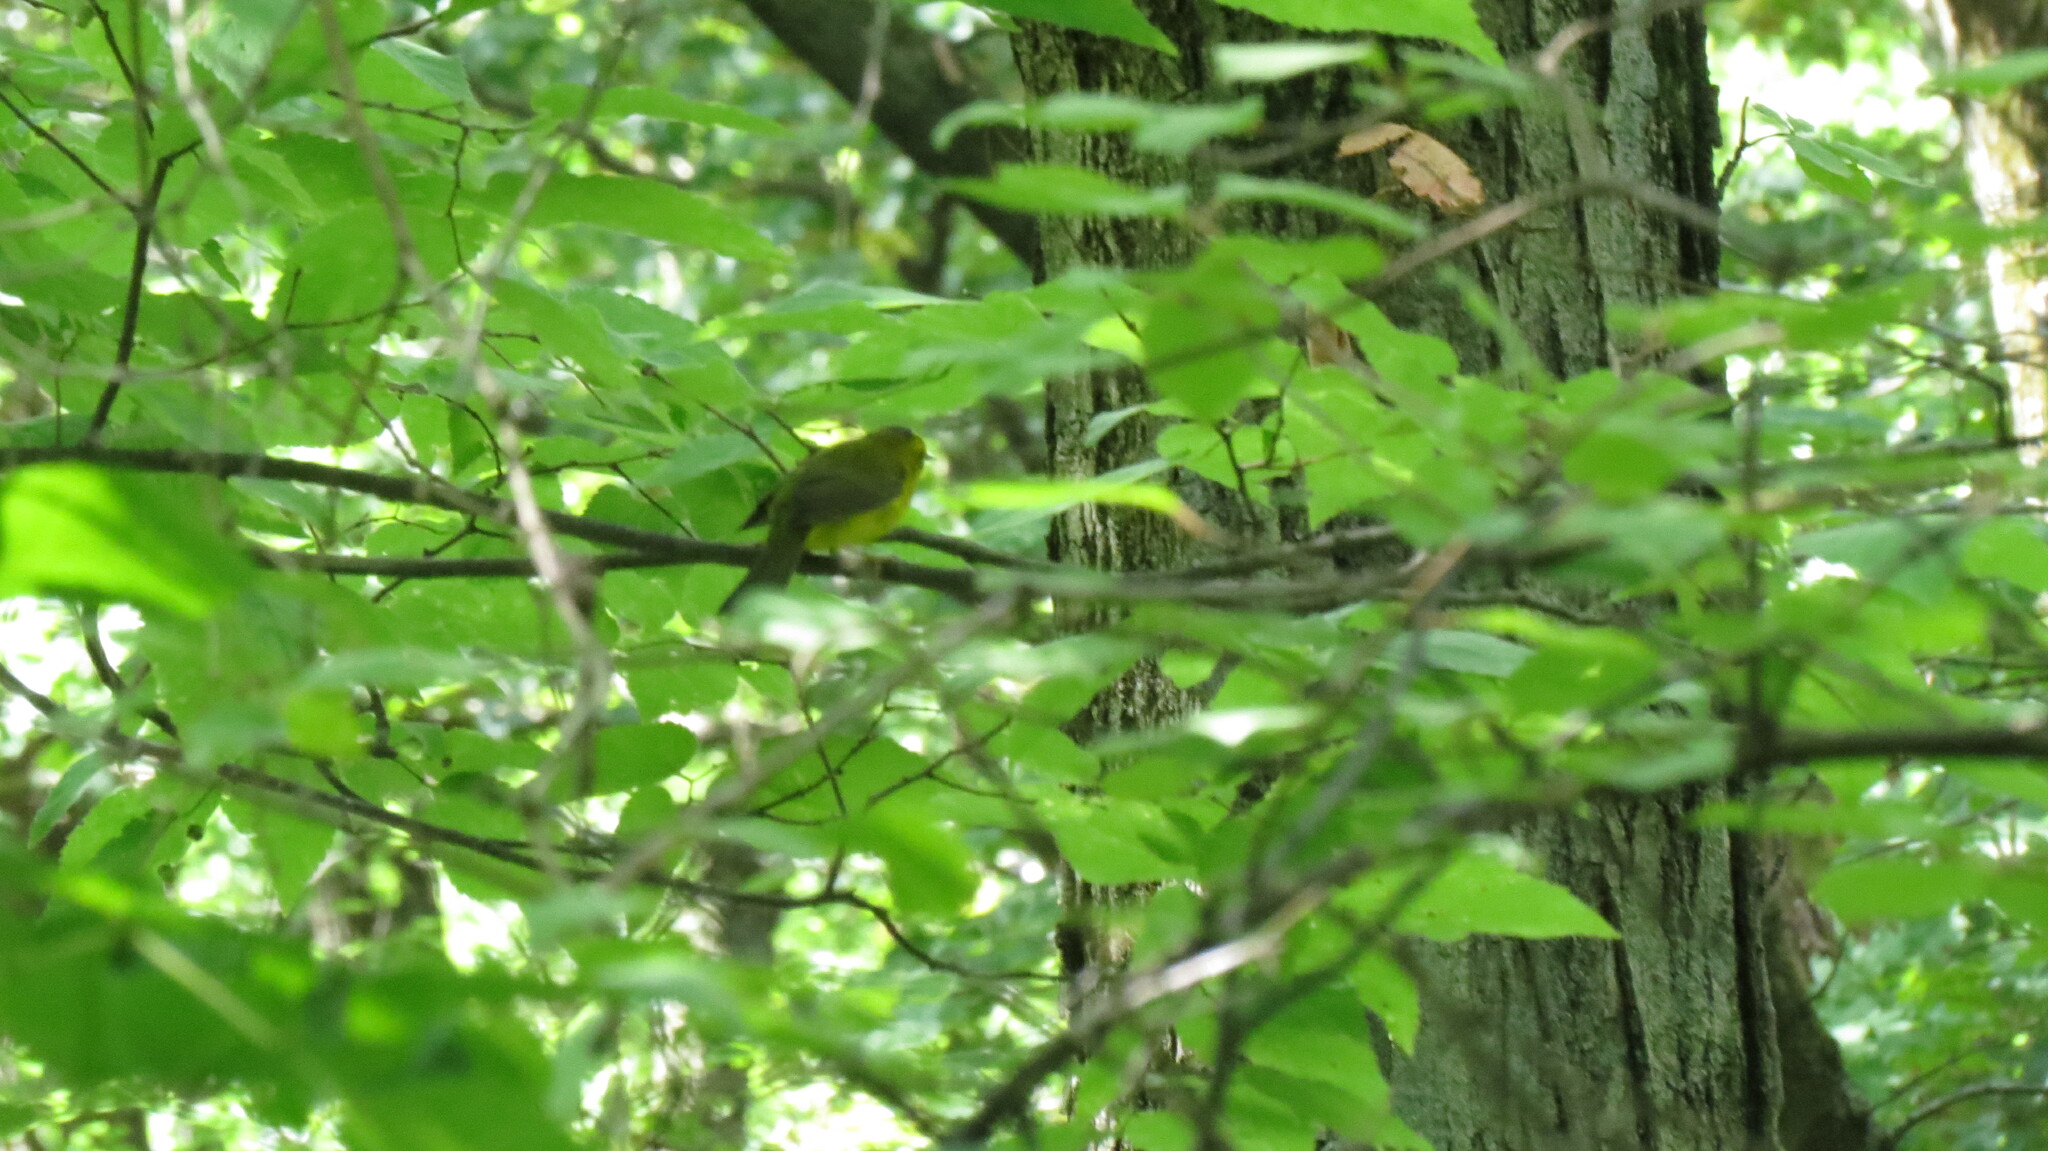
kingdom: Animalia
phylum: Chordata
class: Aves
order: Passeriformes
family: Parulidae
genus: Cardellina
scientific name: Cardellina pusilla
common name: Wilson's warbler
